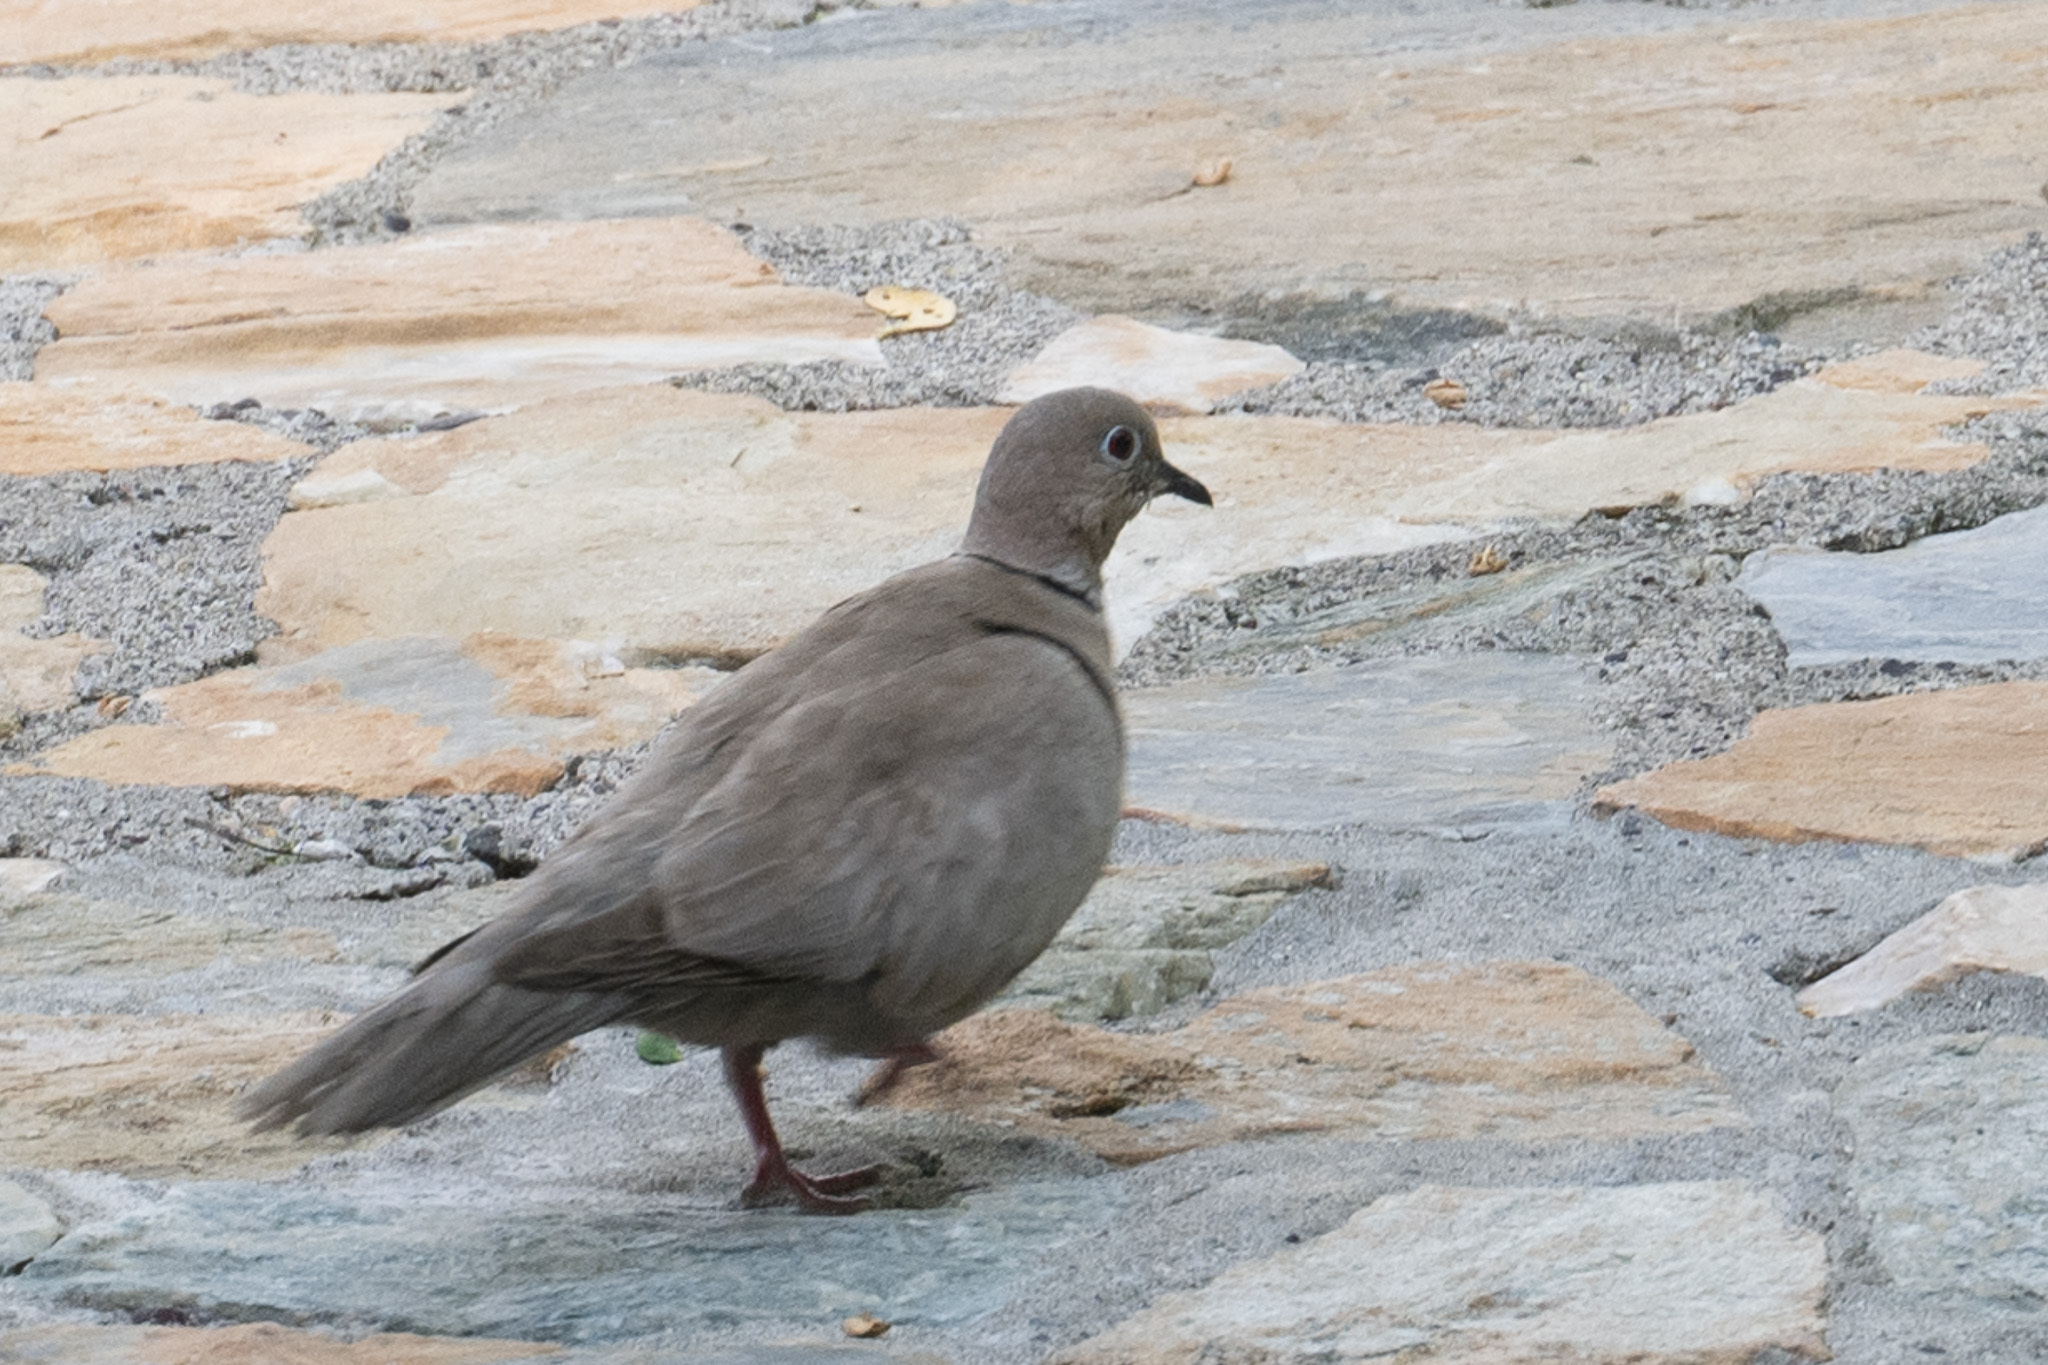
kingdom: Animalia
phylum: Chordata
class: Aves
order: Columbiformes
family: Columbidae
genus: Streptopelia
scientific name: Streptopelia decaocto
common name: Eurasian collared dove
